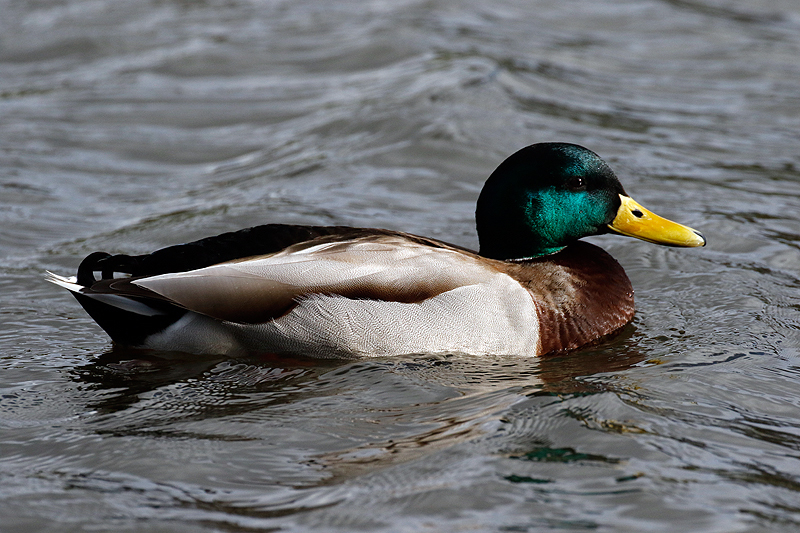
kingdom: Animalia
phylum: Chordata
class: Aves
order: Anseriformes
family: Anatidae
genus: Anas
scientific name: Anas platyrhynchos
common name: Mallard
